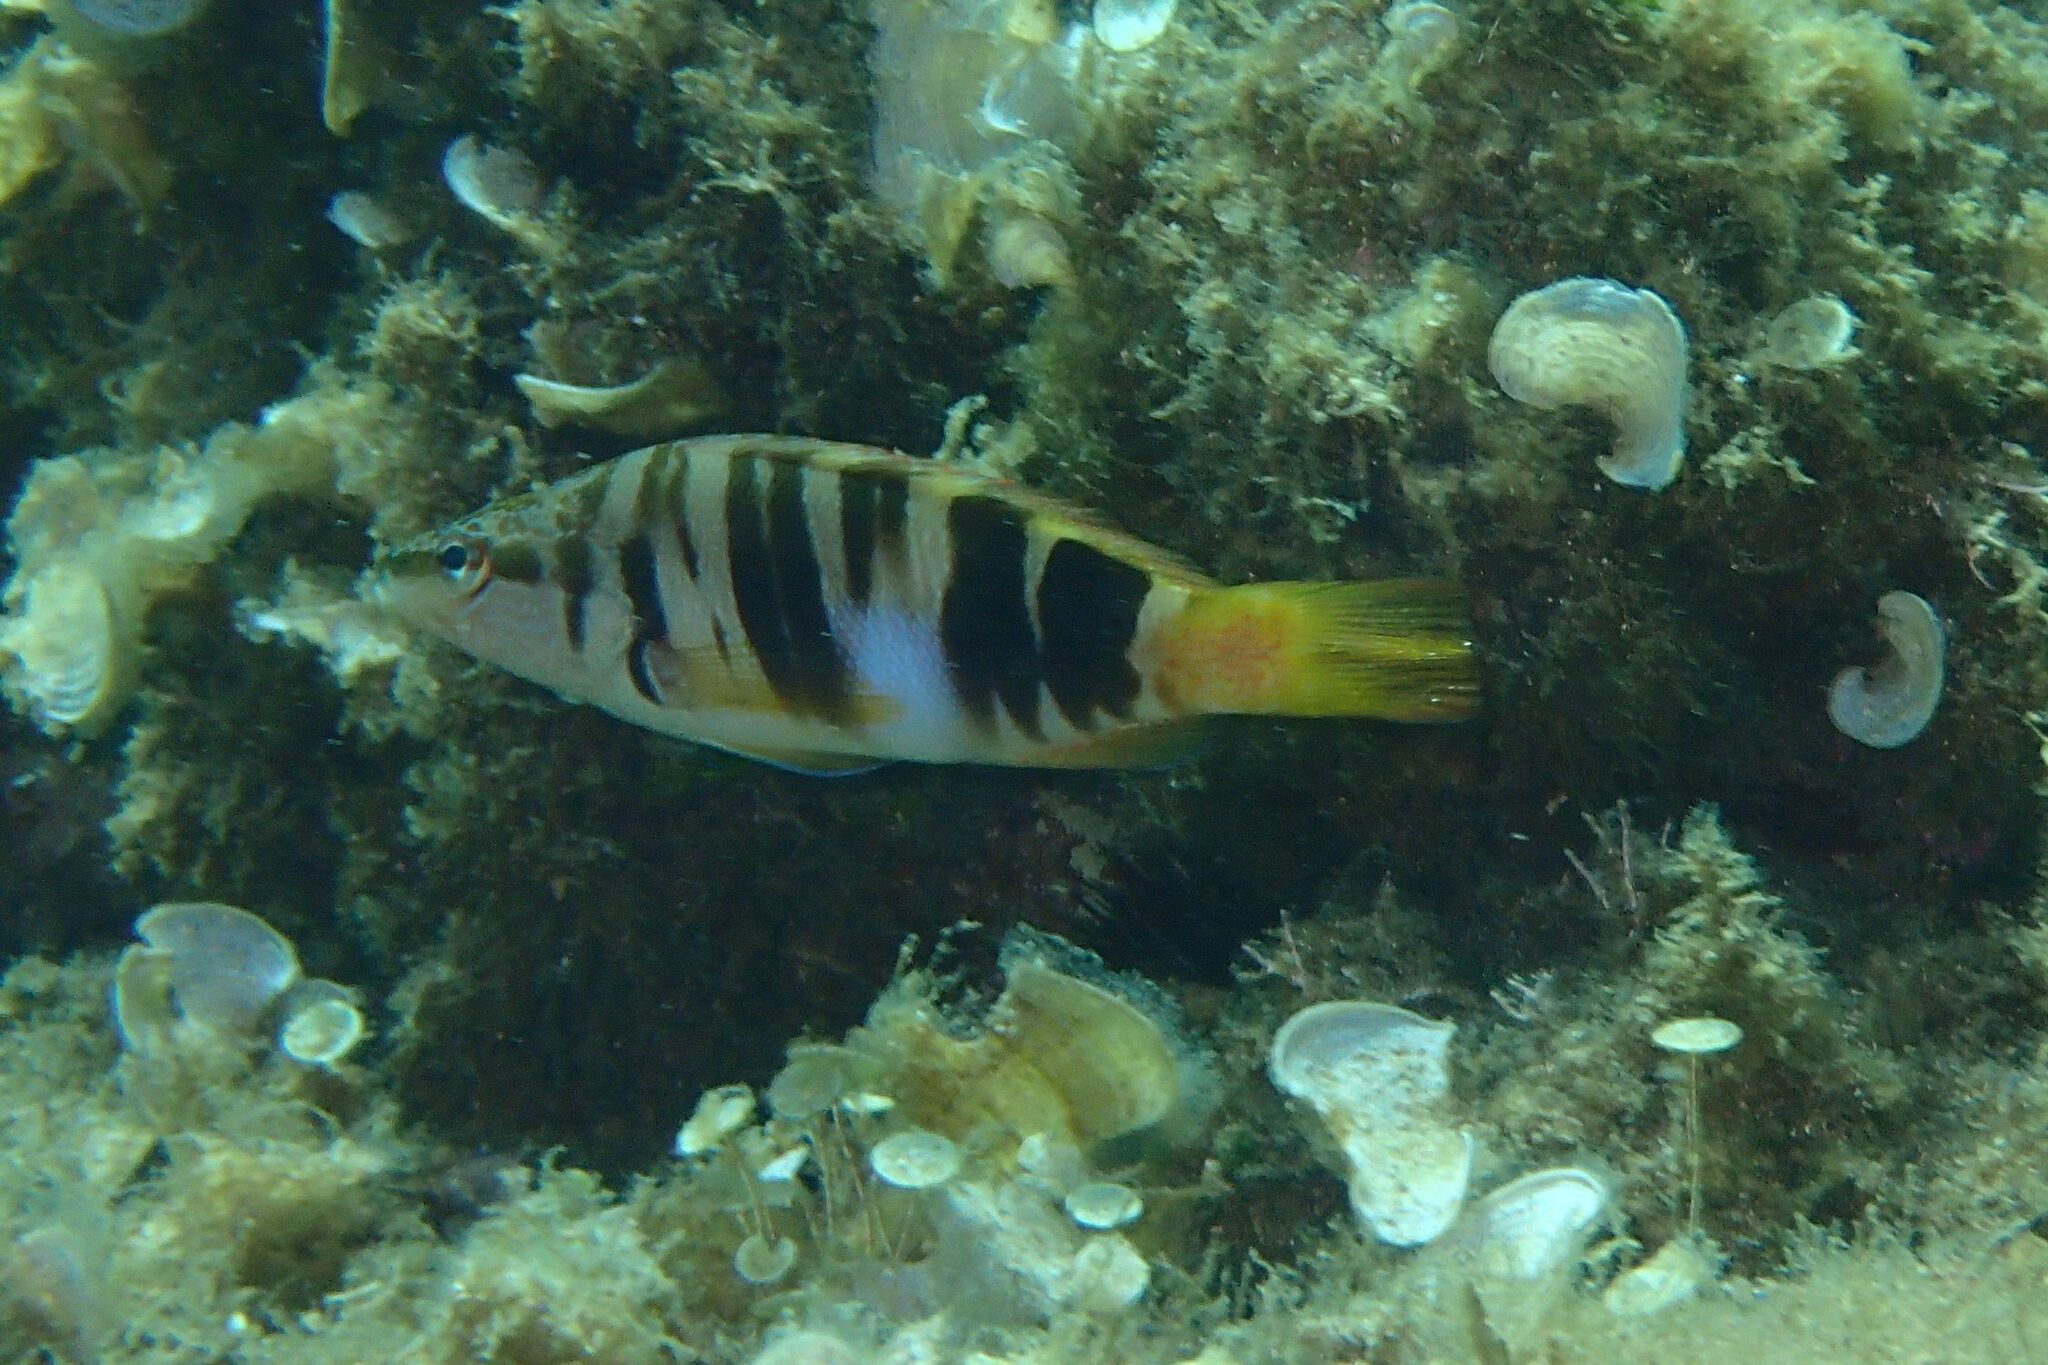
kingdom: Animalia
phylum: Chordata
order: Perciformes
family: Serranidae
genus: Serranus
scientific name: Serranus scriba
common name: Painted comber
